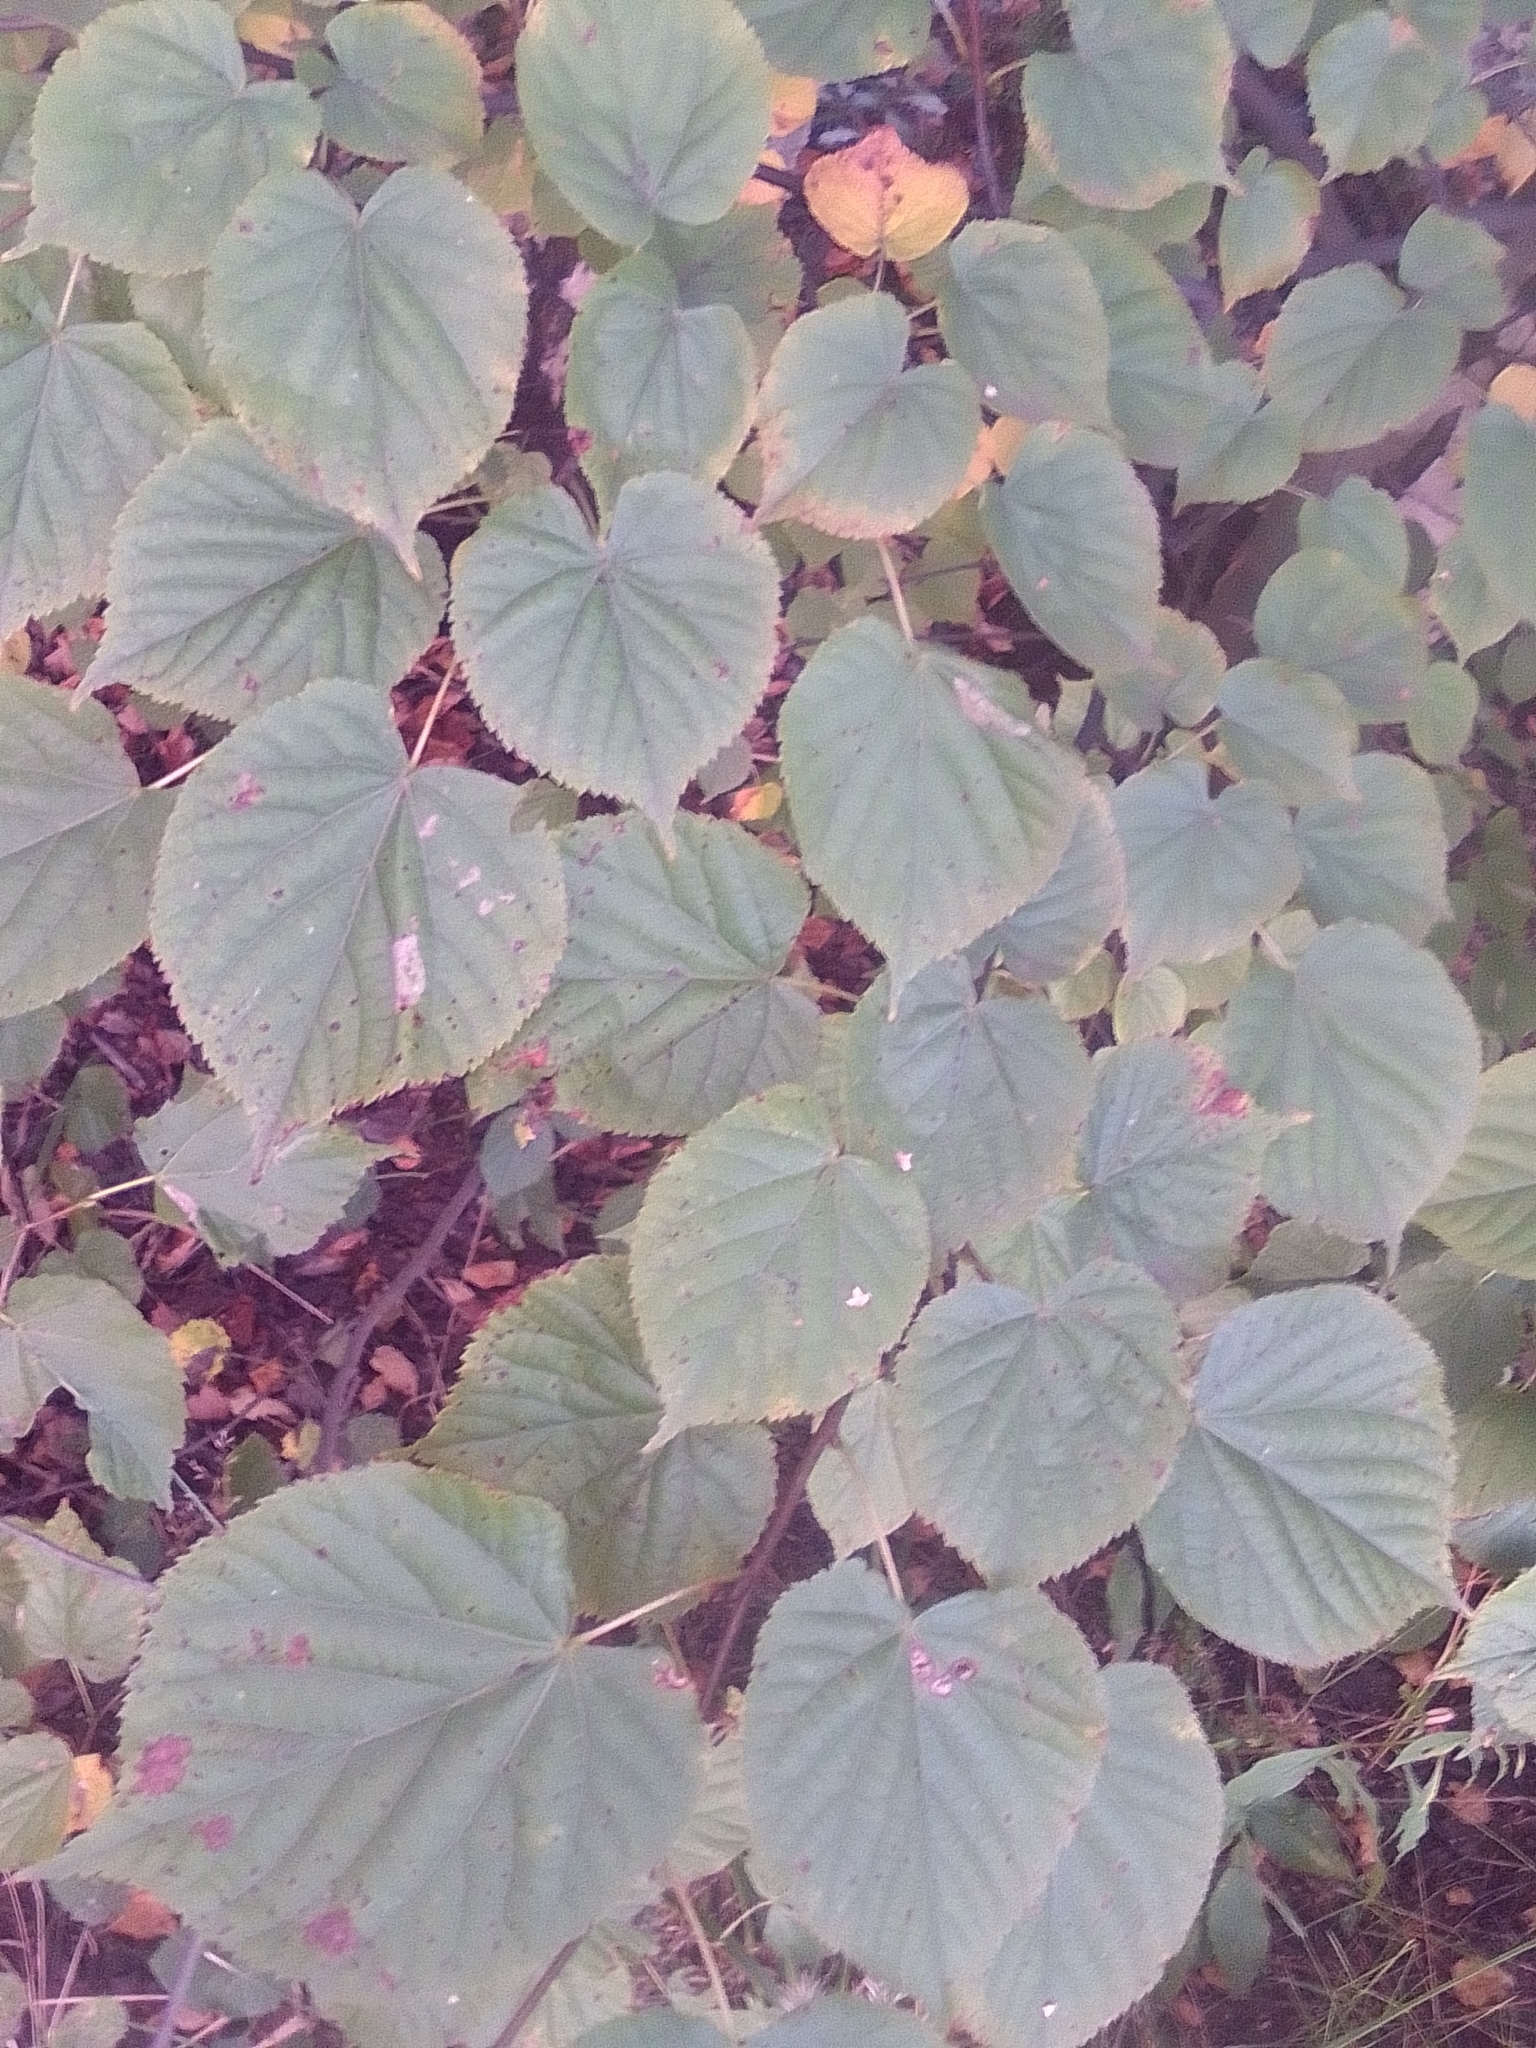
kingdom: Plantae
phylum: Tracheophyta
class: Magnoliopsida
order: Malvales
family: Malvaceae
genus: Tilia
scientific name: Tilia cordata
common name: Small-leaved lime
